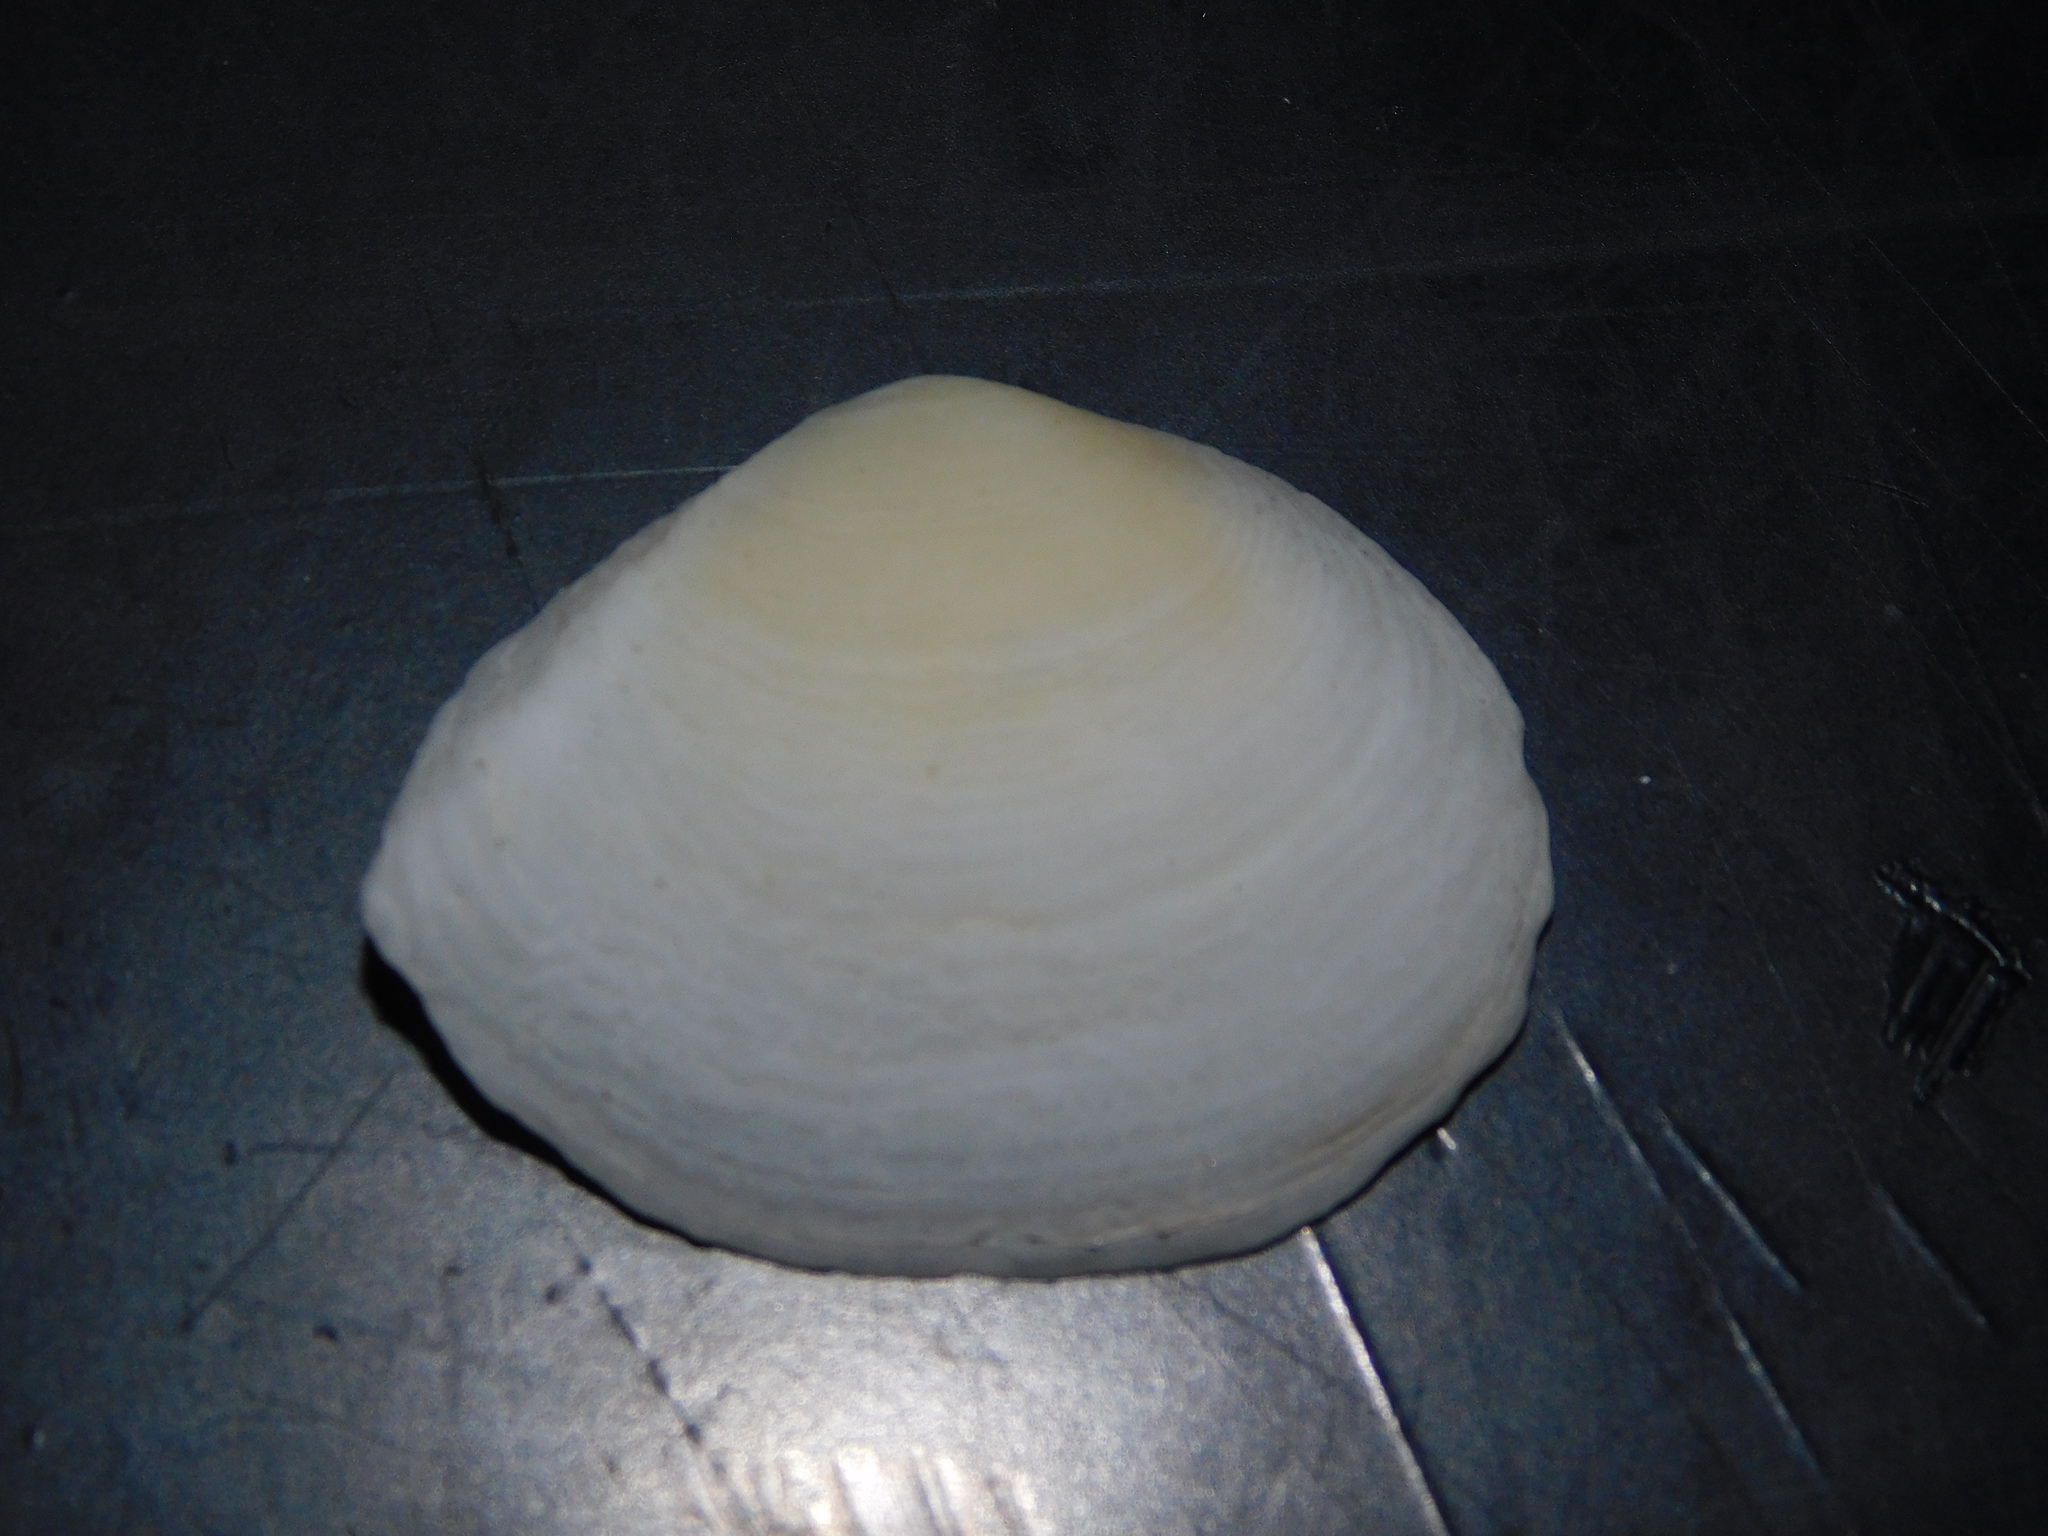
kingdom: Animalia
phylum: Mollusca
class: Bivalvia
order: Cardiida
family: Tellinidae
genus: Quidnipagus
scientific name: Quidnipagus palatam
